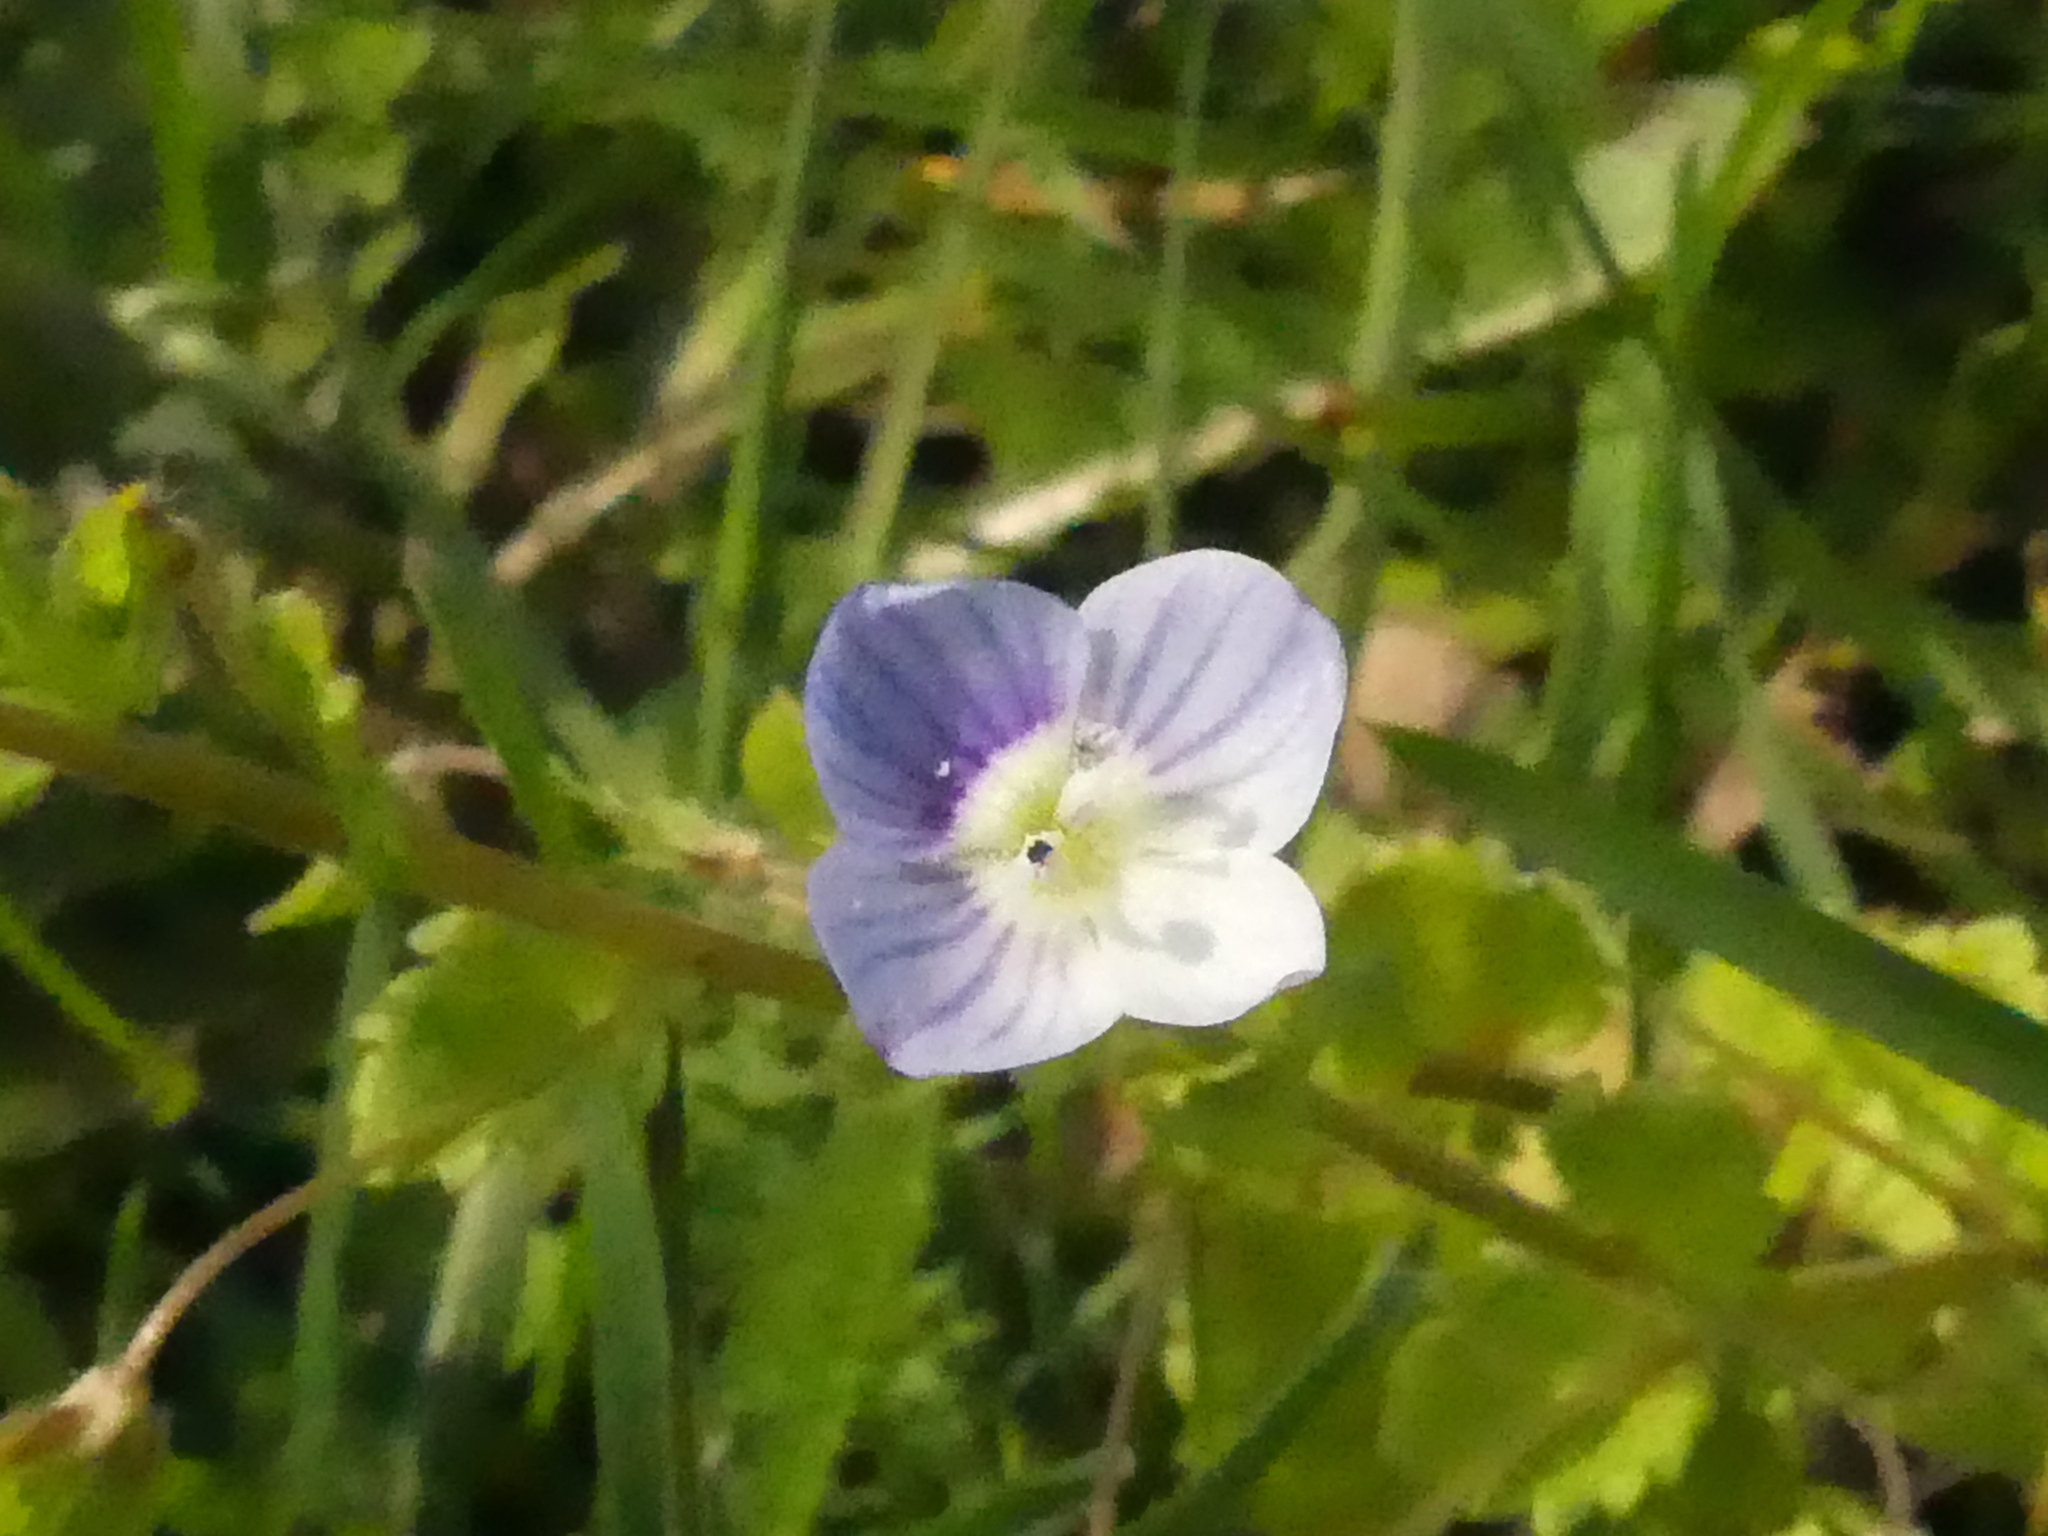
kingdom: Plantae
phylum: Tracheophyta
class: Magnoliopsida
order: Lamiales
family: Plantaginaceae
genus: Veronica
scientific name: Veronica persica
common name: Common field-speedwell
